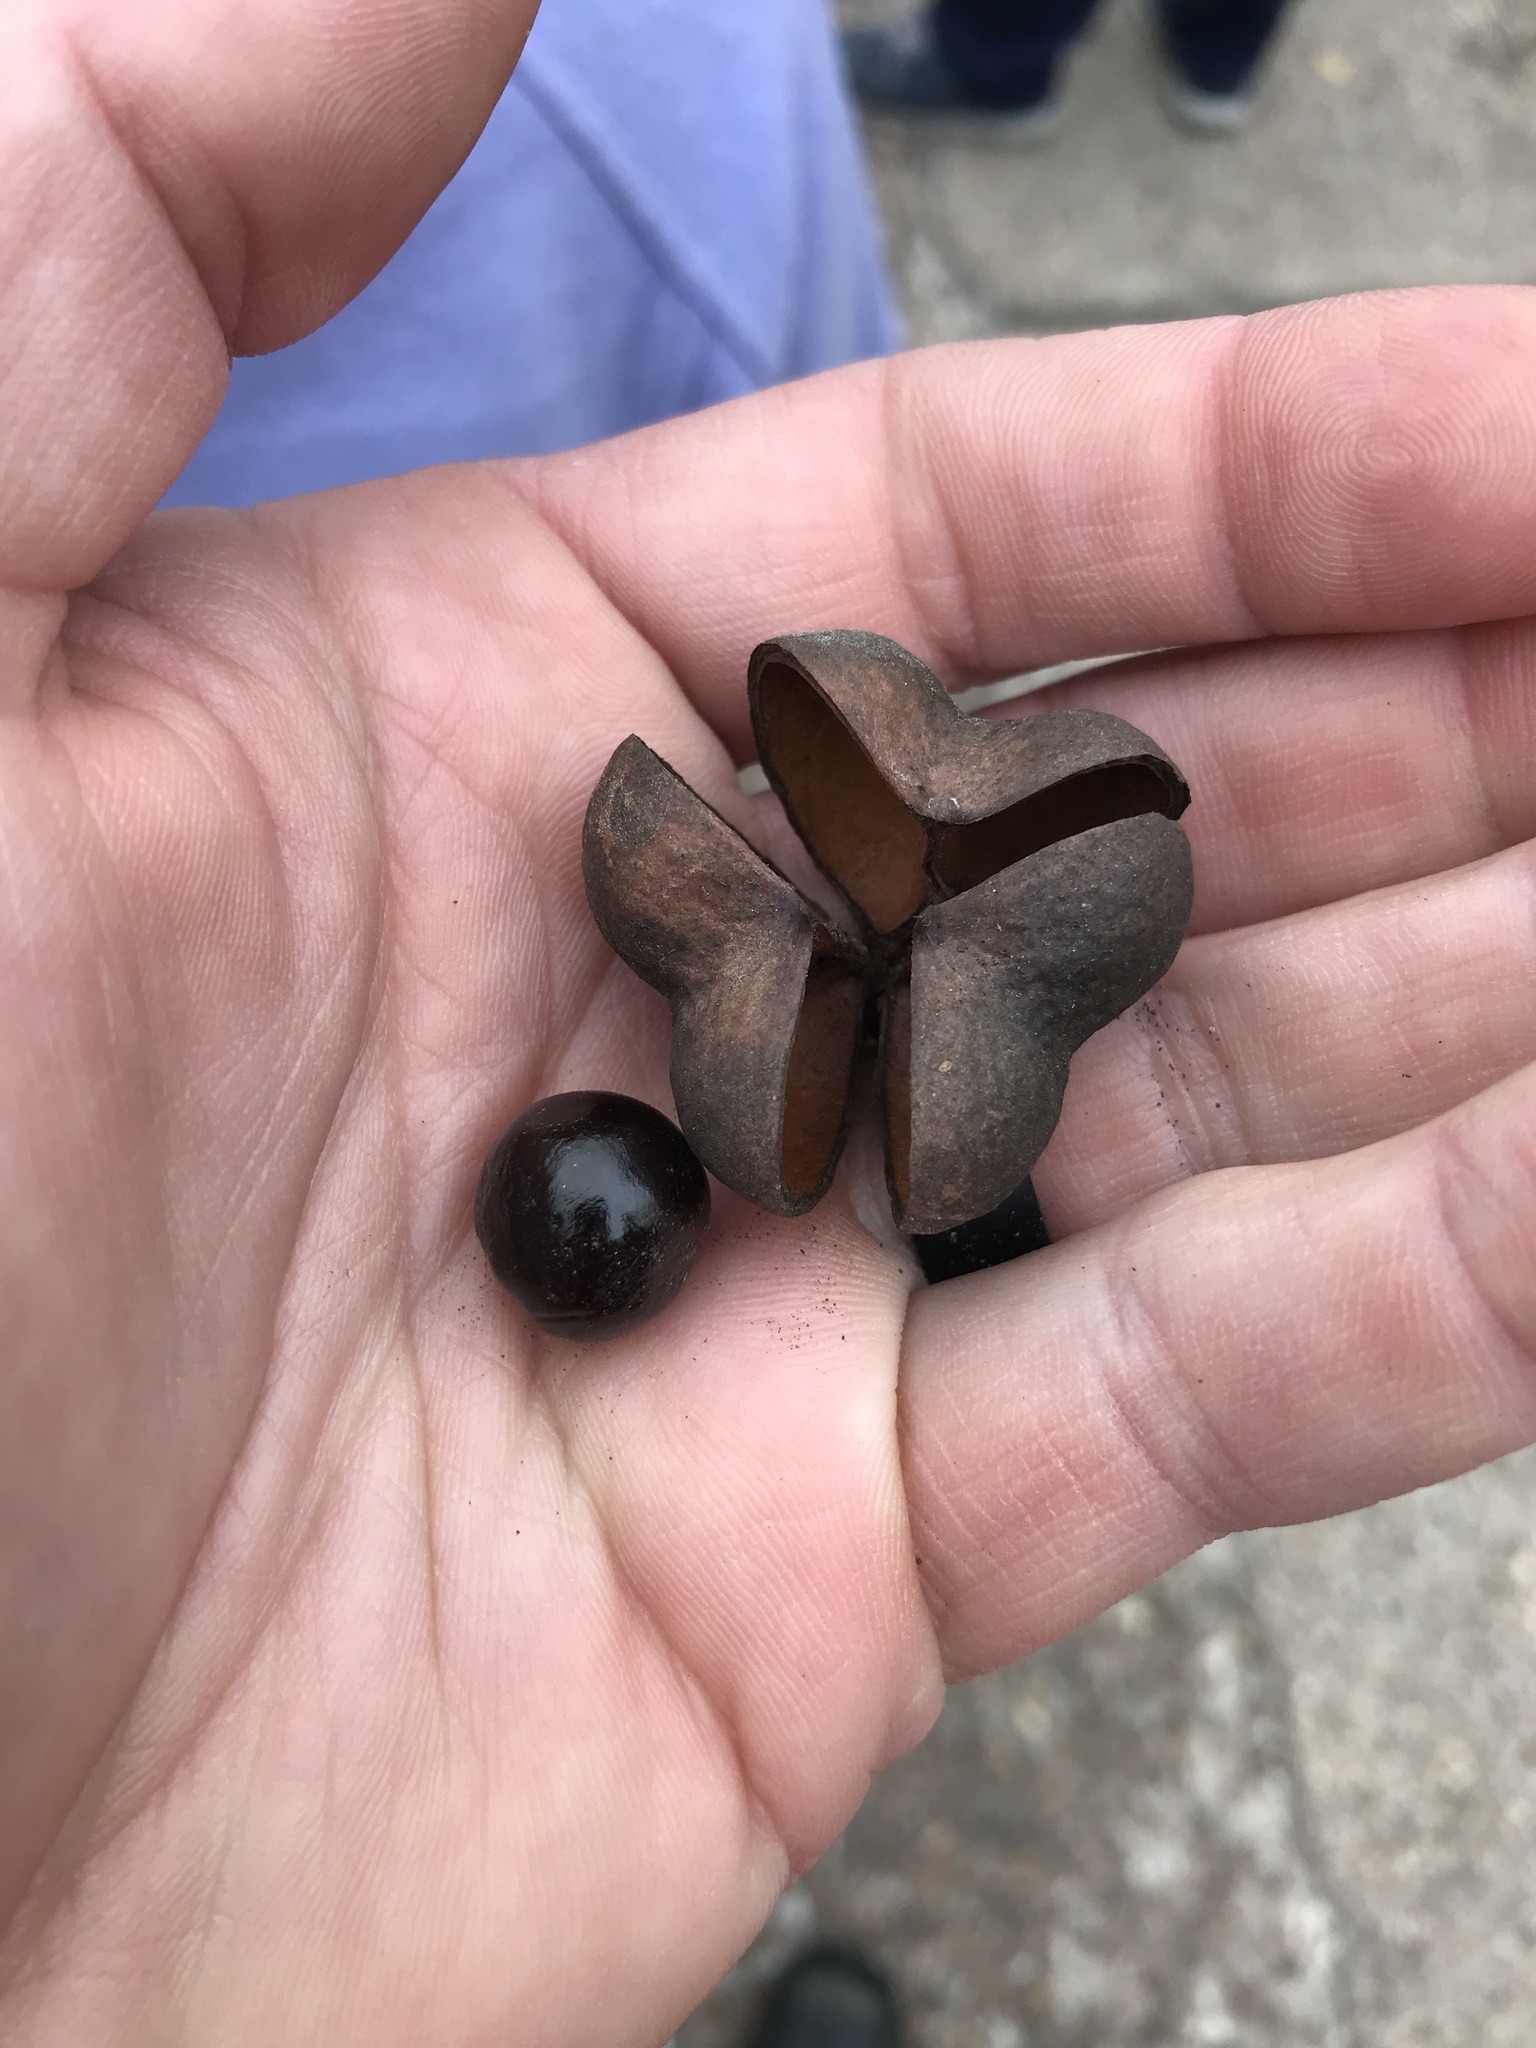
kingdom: Plantae
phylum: Tracheophyta
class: Magnoliopsida
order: Sapindales
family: Sapindaceae
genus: Ungnadia
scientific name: Ungnadia speciosa
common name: Texas-buckeye
